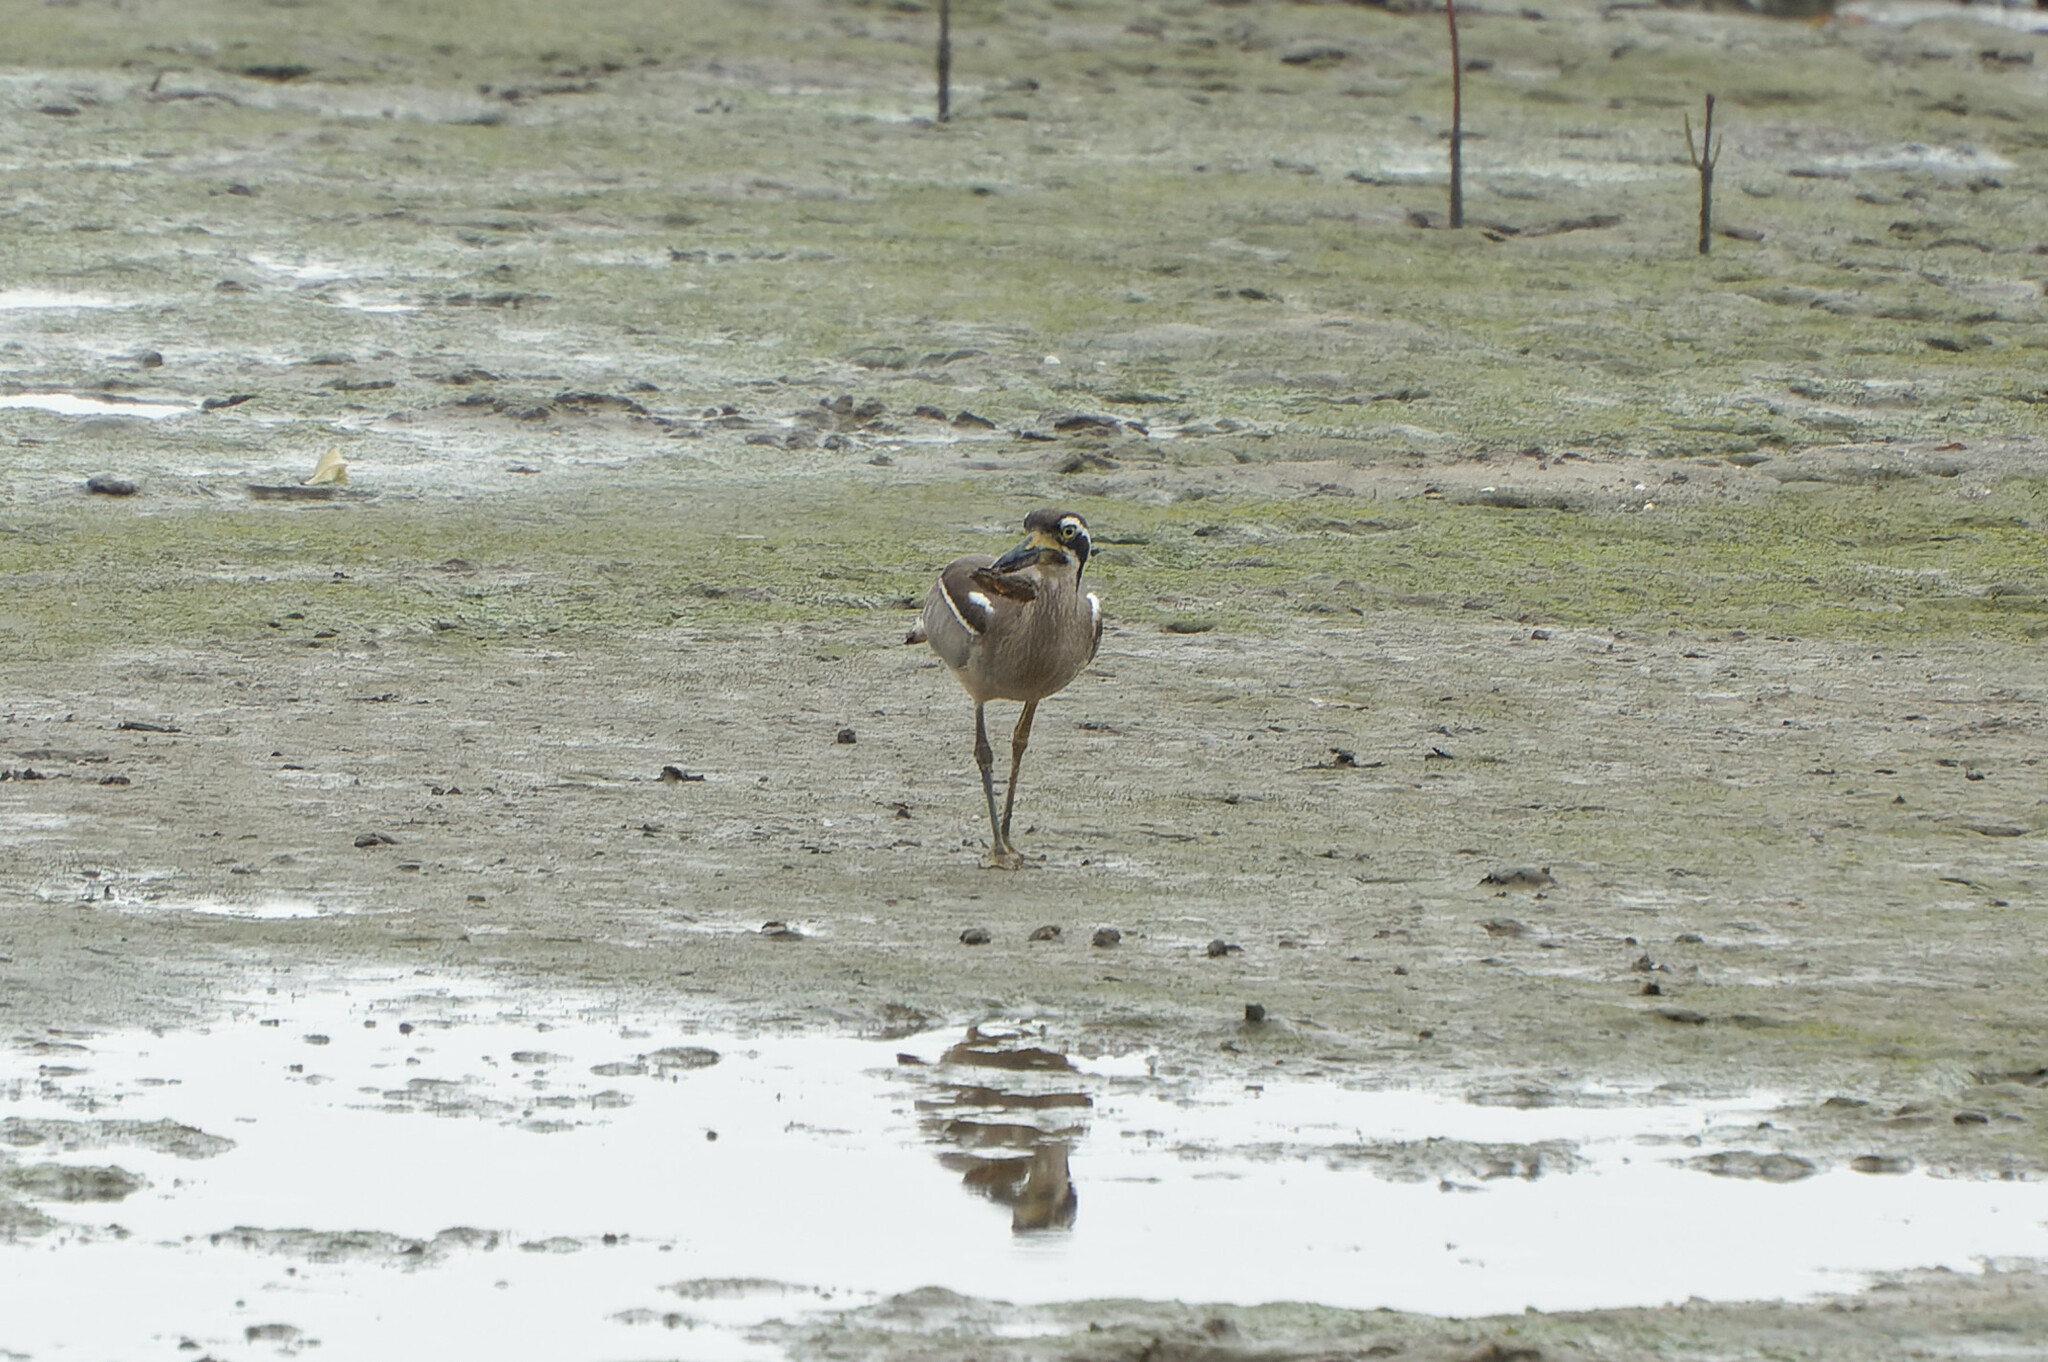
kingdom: Animalia
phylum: Chordata
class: Aves
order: Charadriiformes
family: Burhinidae
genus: Esacus
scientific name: Esacus magnirostris
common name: Beach stone-curlew
